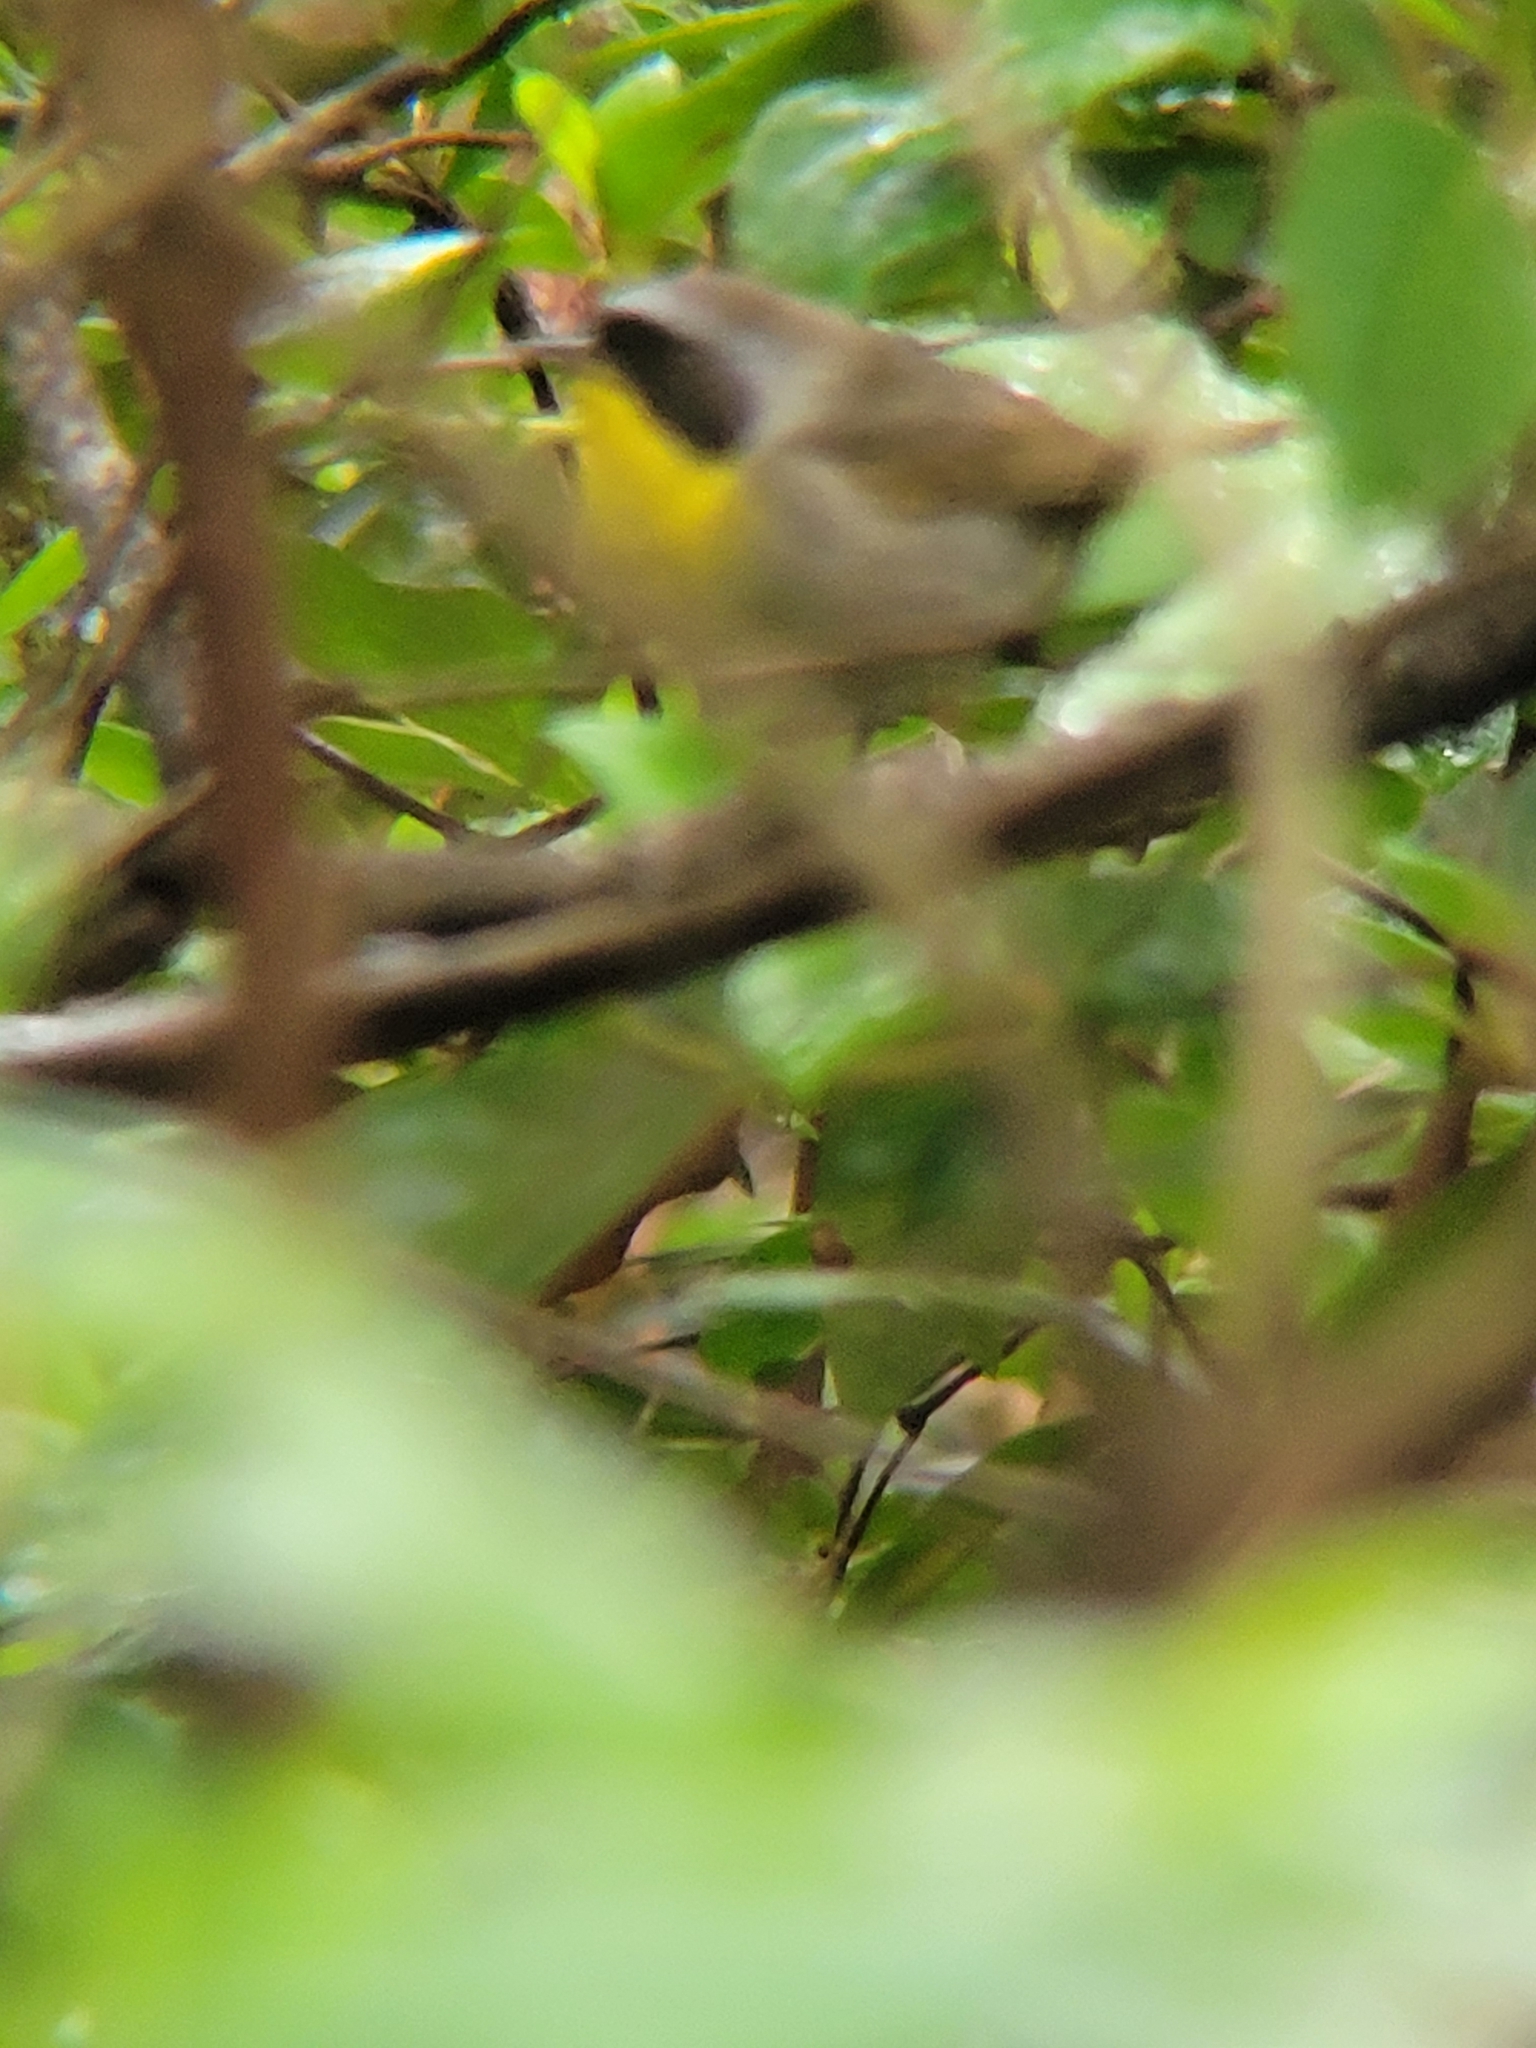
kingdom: Animalia
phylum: Chordata
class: Aves
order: Passeriformes
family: Parulidae
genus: Geothlypis
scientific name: Geothlypis trichas
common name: Common yellowthroat
